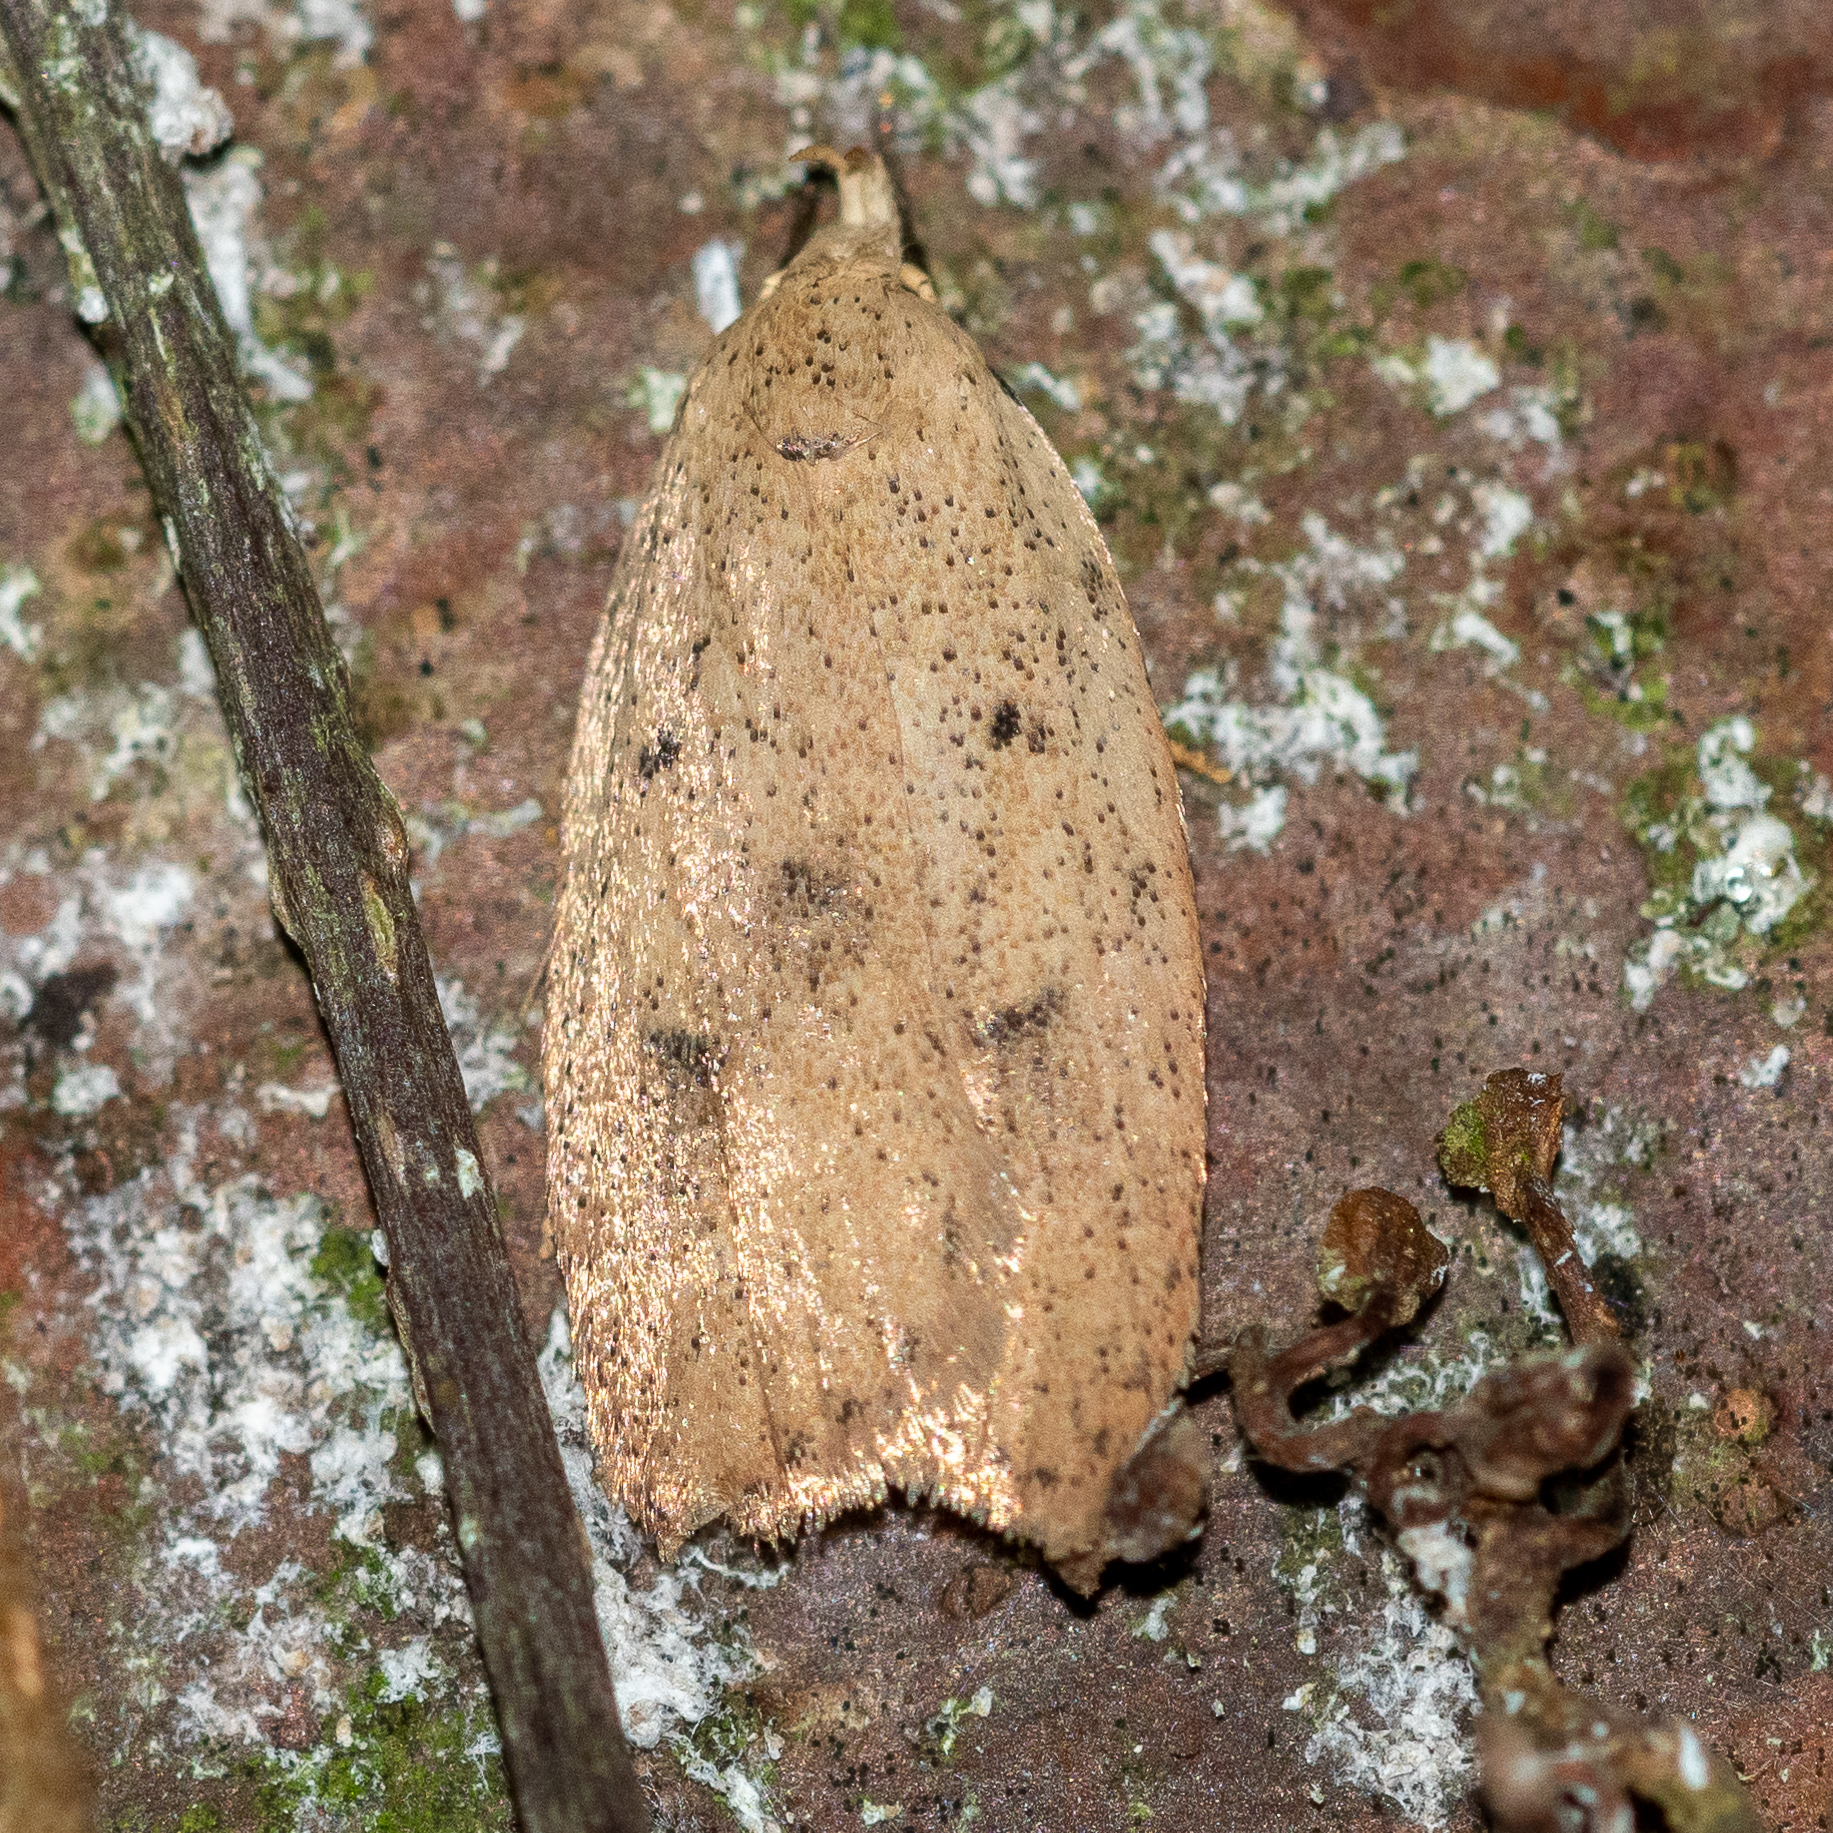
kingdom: Animalia
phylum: Arthropoda
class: Insecta
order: Lepidoptera
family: Peleopodidae
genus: Machimia
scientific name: Machimia tentoriferella
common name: Gold-striped leaftier moth
